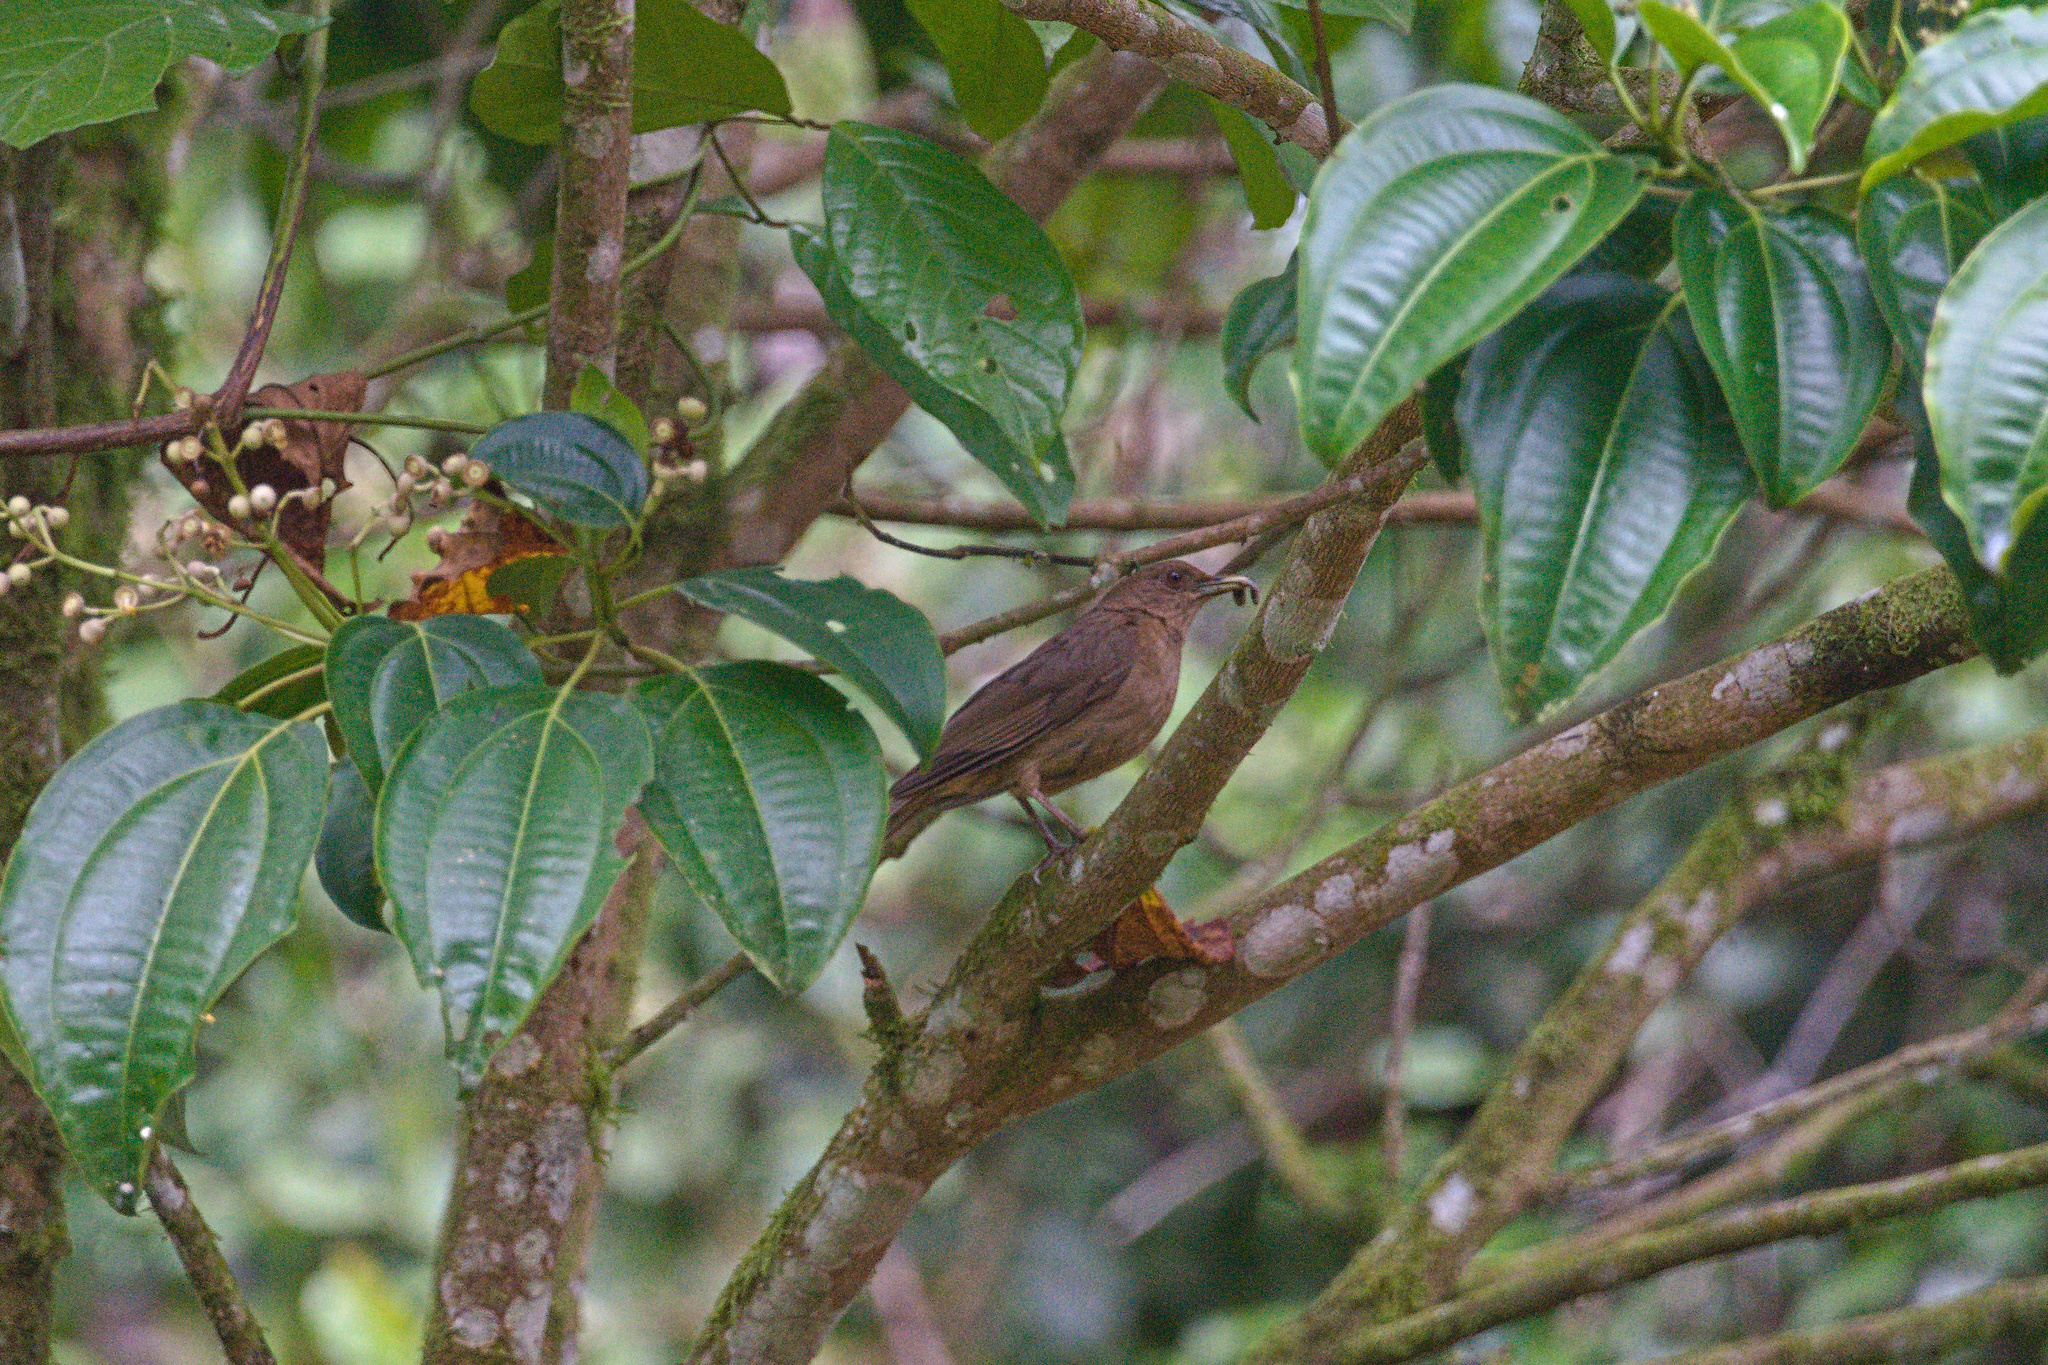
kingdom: Animalia
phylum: Chordata
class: Aves
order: Passeriformes
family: Turdidae
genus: Turdus
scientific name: Turdus grayi
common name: Clay-colored thrush
